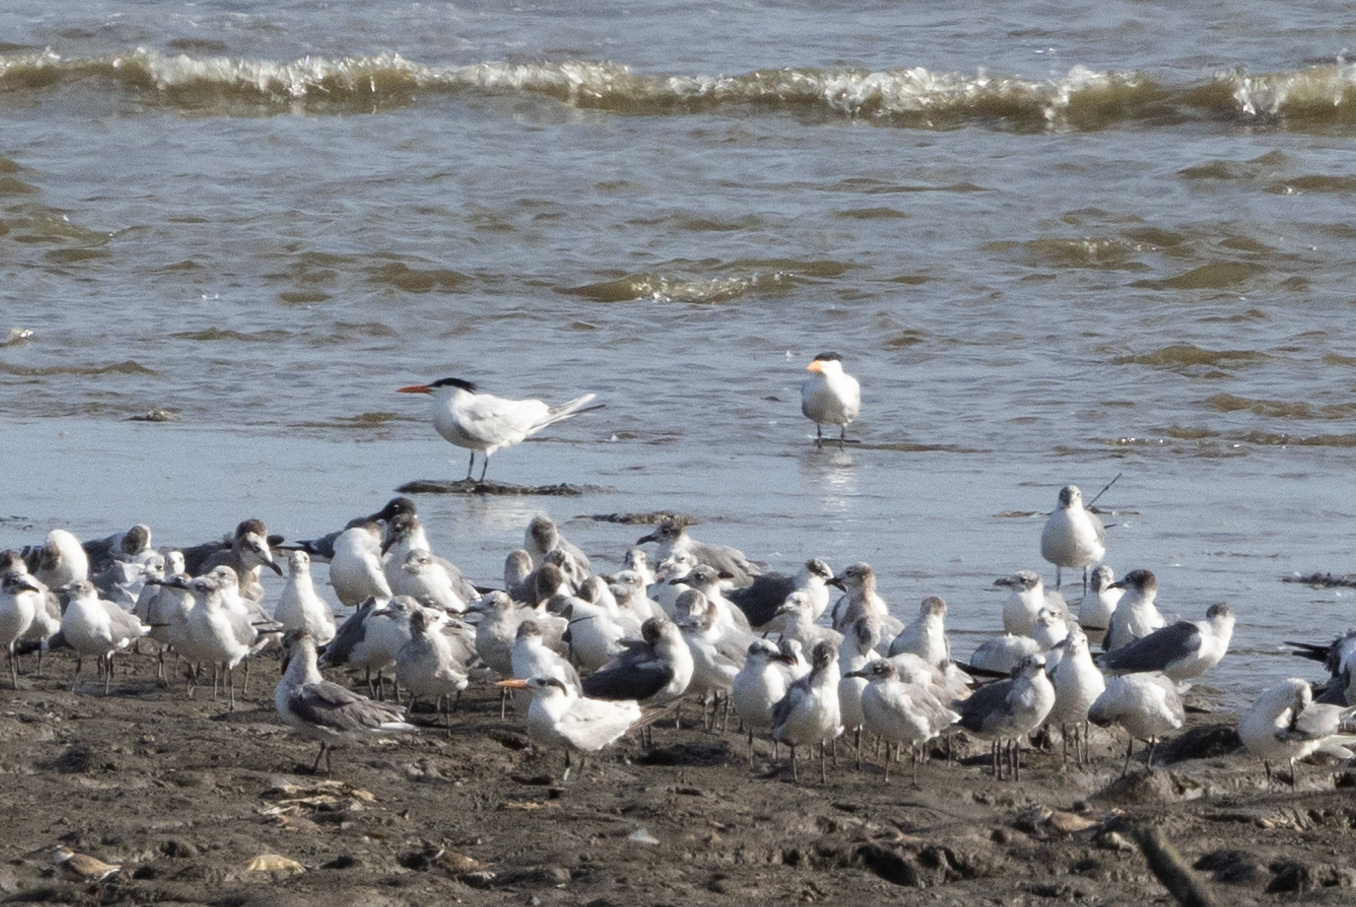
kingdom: Animalia
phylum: Chordata
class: Aves
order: Charadriiformes
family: Laridae
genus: Thalasseus
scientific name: Thalasseus maximus
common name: Royal tern
